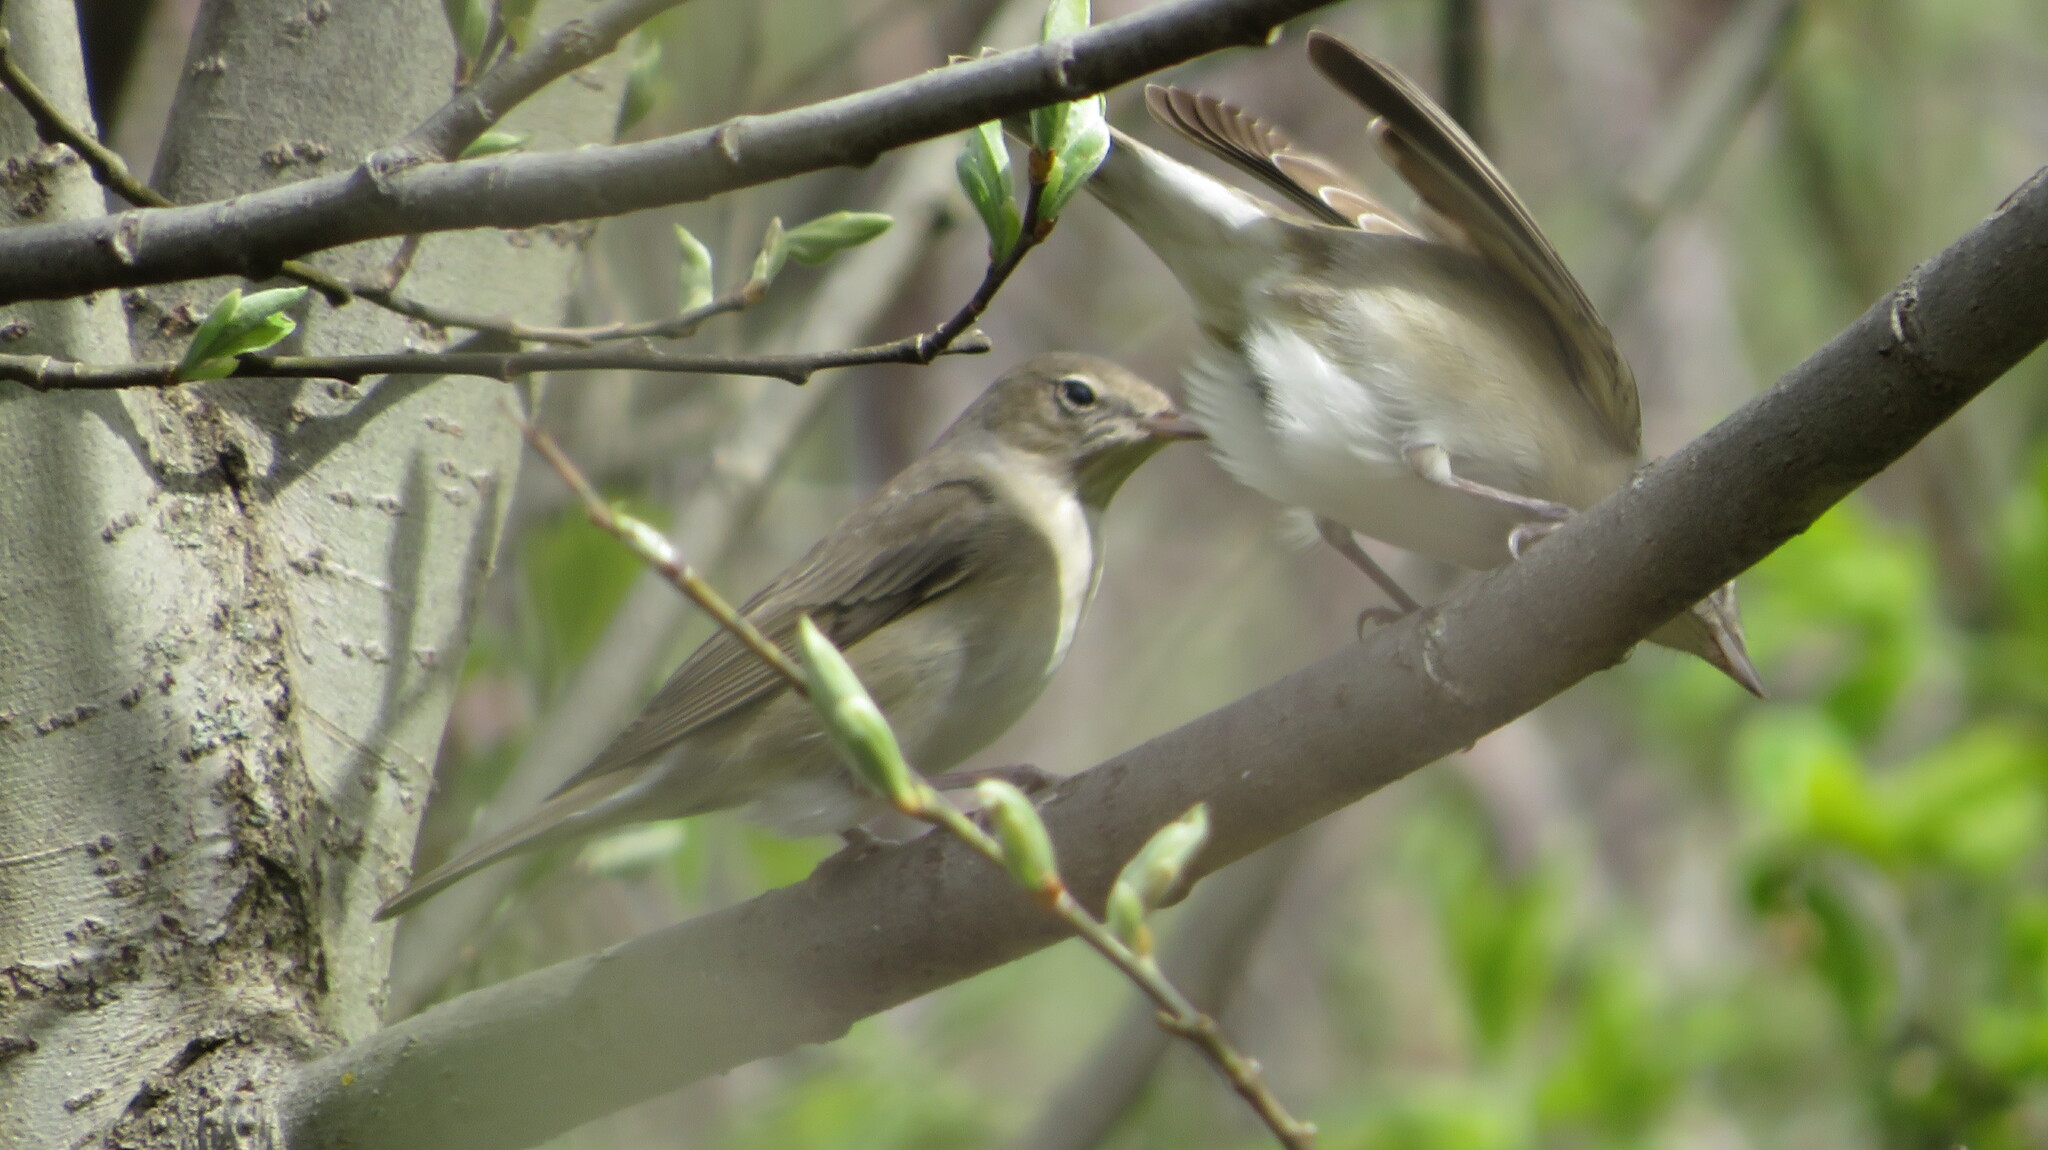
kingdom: Animalia
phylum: Chordata
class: Aves
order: Passeriformes
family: Sylviidae
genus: Sylvia
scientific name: Sylvia borin
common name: Garden warbler
